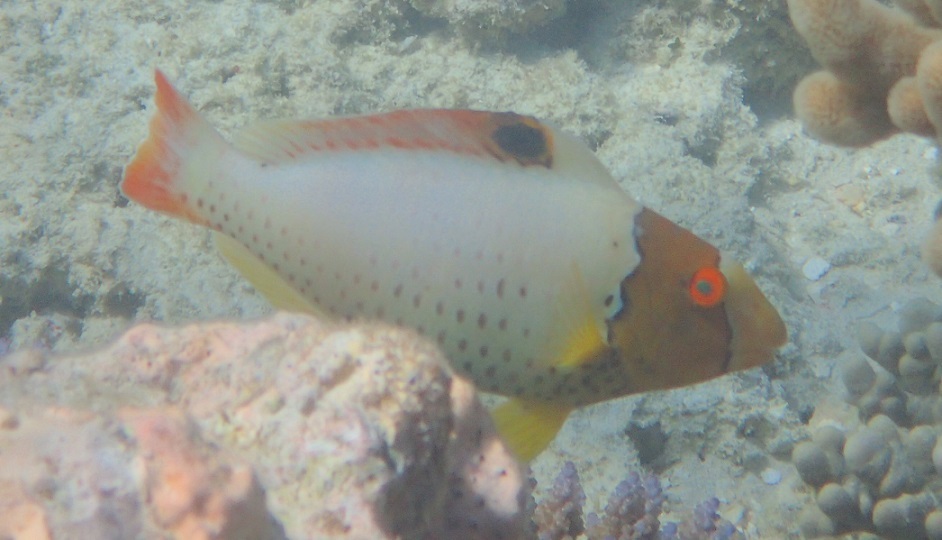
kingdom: Animalia
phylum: Chordata
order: Perciformes
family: Scaridae
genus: Cetoscarus
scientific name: Cetoscarus ocellatus
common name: Bicolor parrotfish
